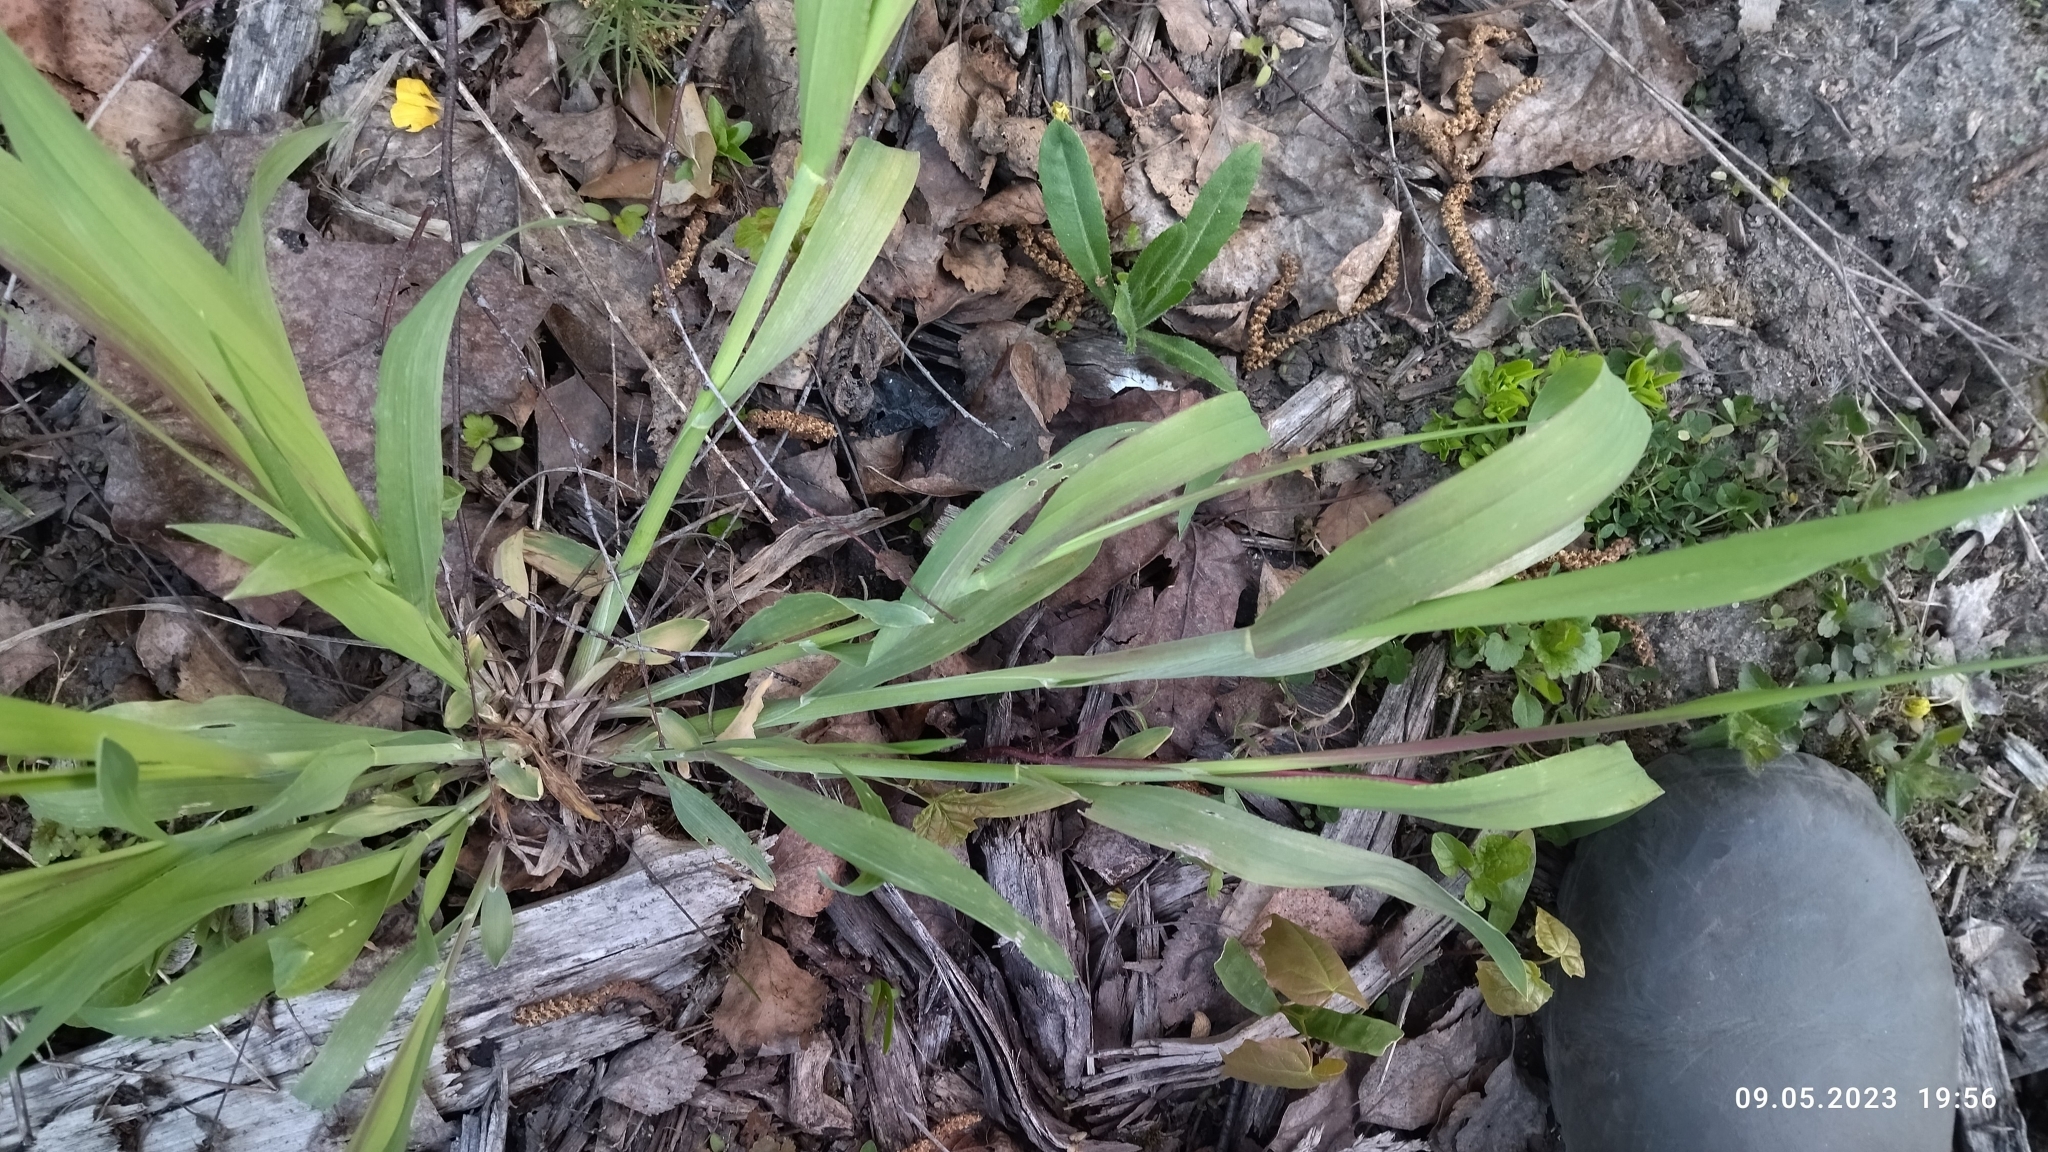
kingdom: Plantae
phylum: Tracheophyta
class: Liliopsida
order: Poales
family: Poaceae
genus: Milium
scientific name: Milium effusum
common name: Wood millet
